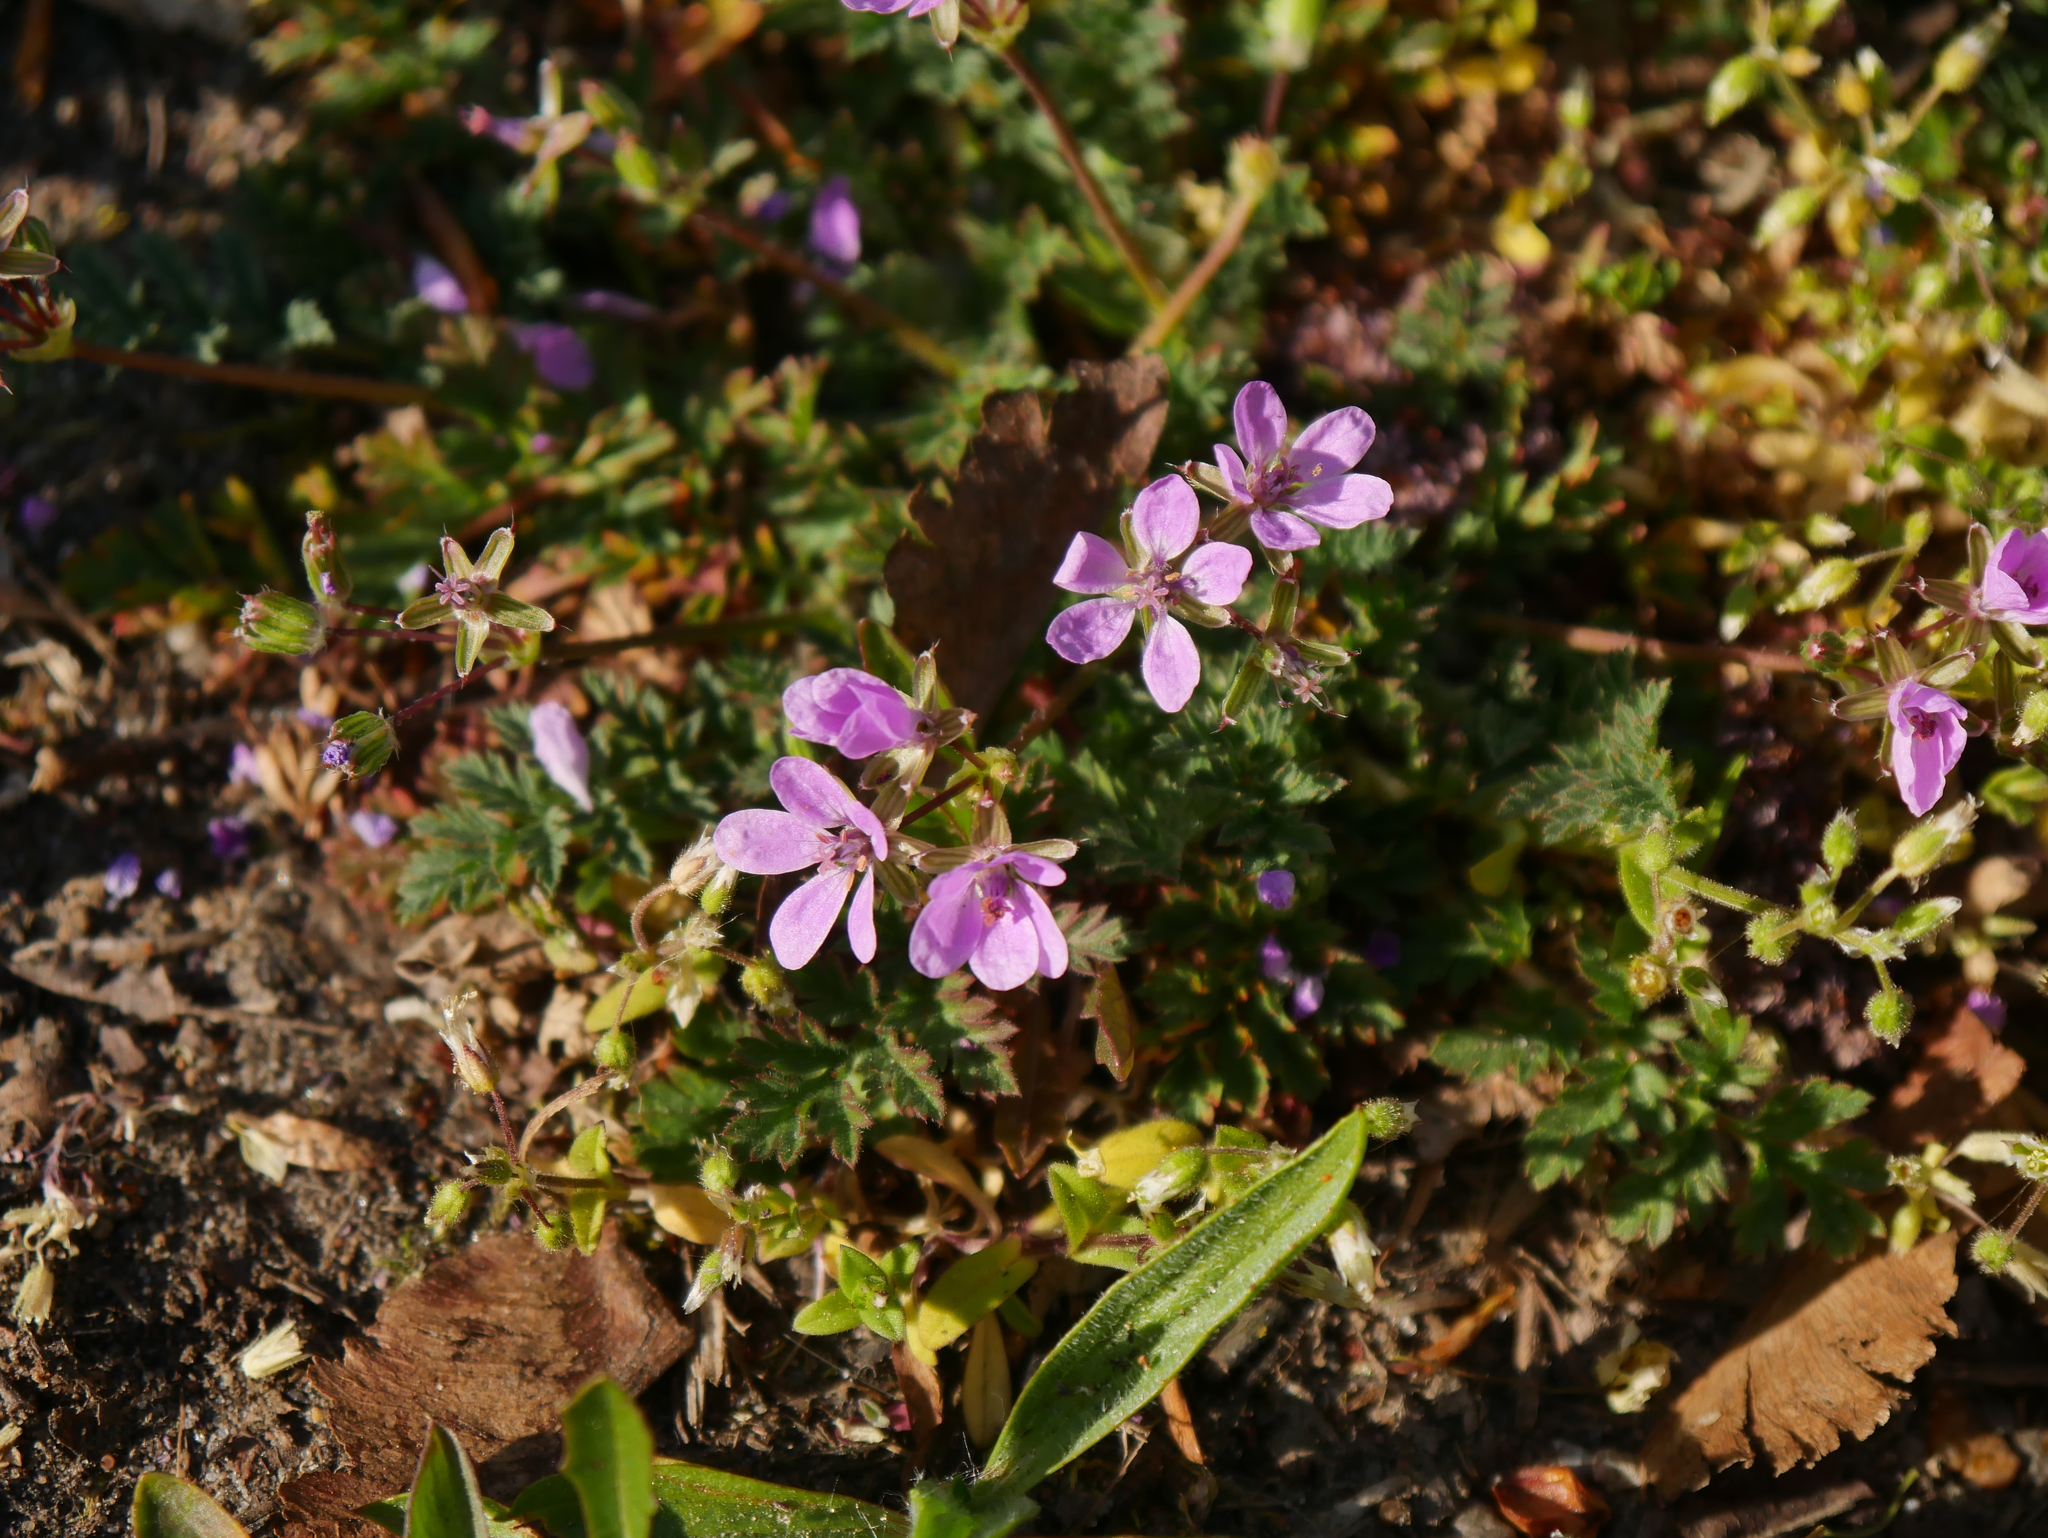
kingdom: Plantae
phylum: Tracheophyta
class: Magnoliopsida
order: Geraniales
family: Geraniaceae
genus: Erodium
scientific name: Erodium cicutarium
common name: Common stork's-bill
